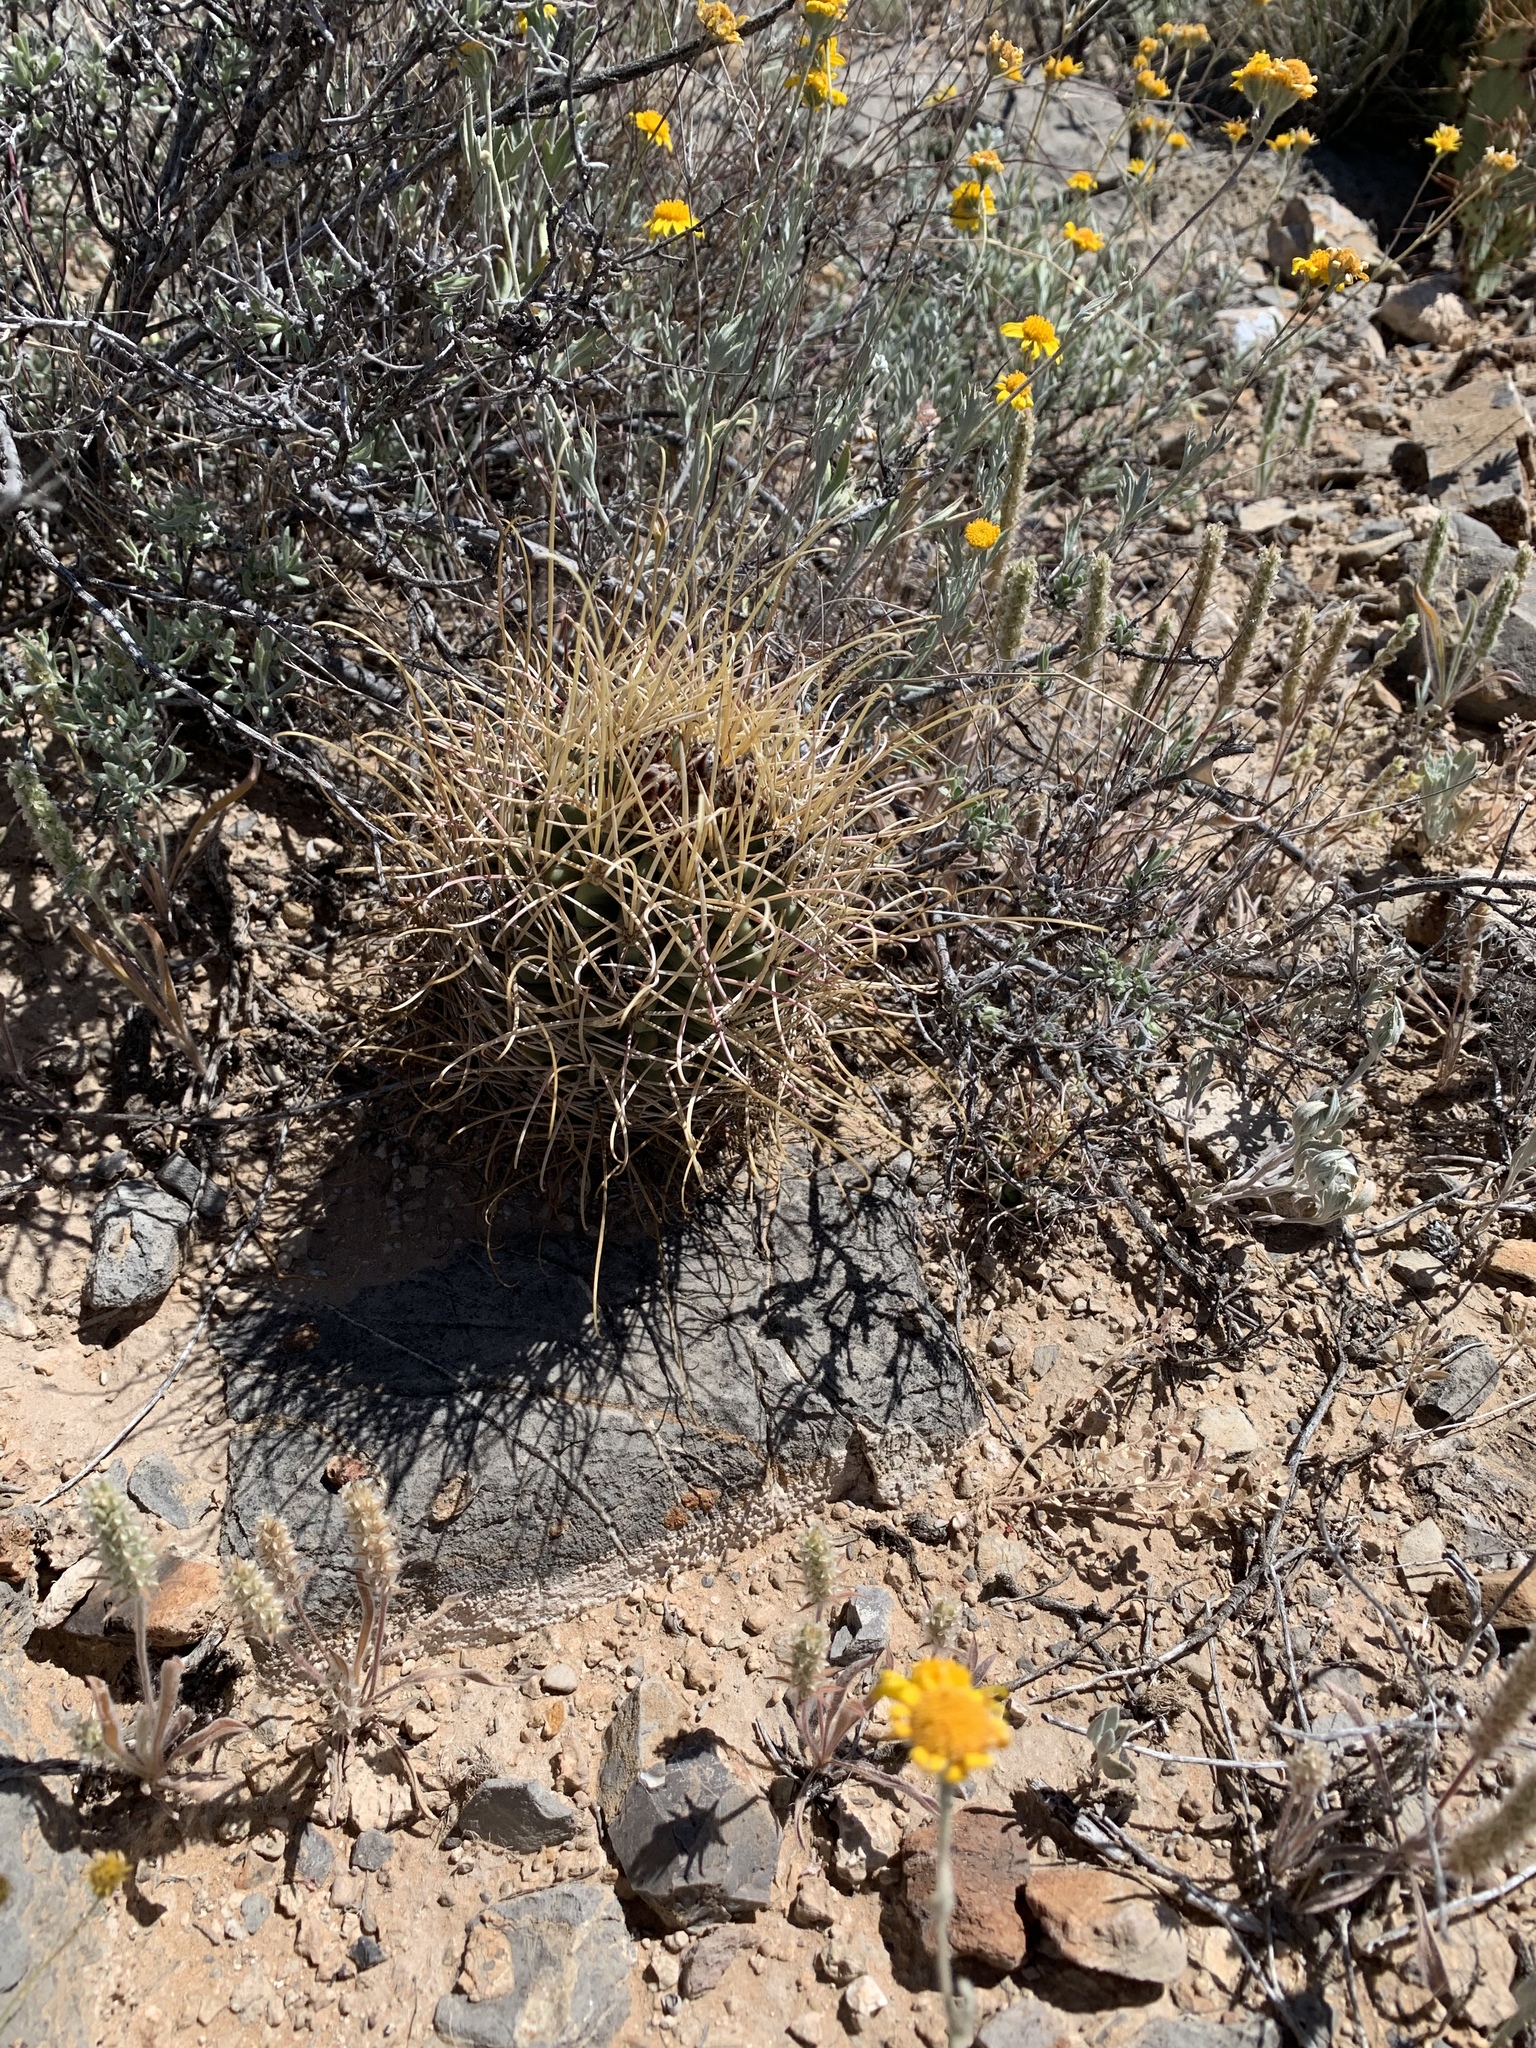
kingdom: Plantae
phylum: Tracheophyta
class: Magnoliopsida
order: Caryophyllales
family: Cactaceae
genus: Ferocactus
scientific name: Ferocactus uncinatus
